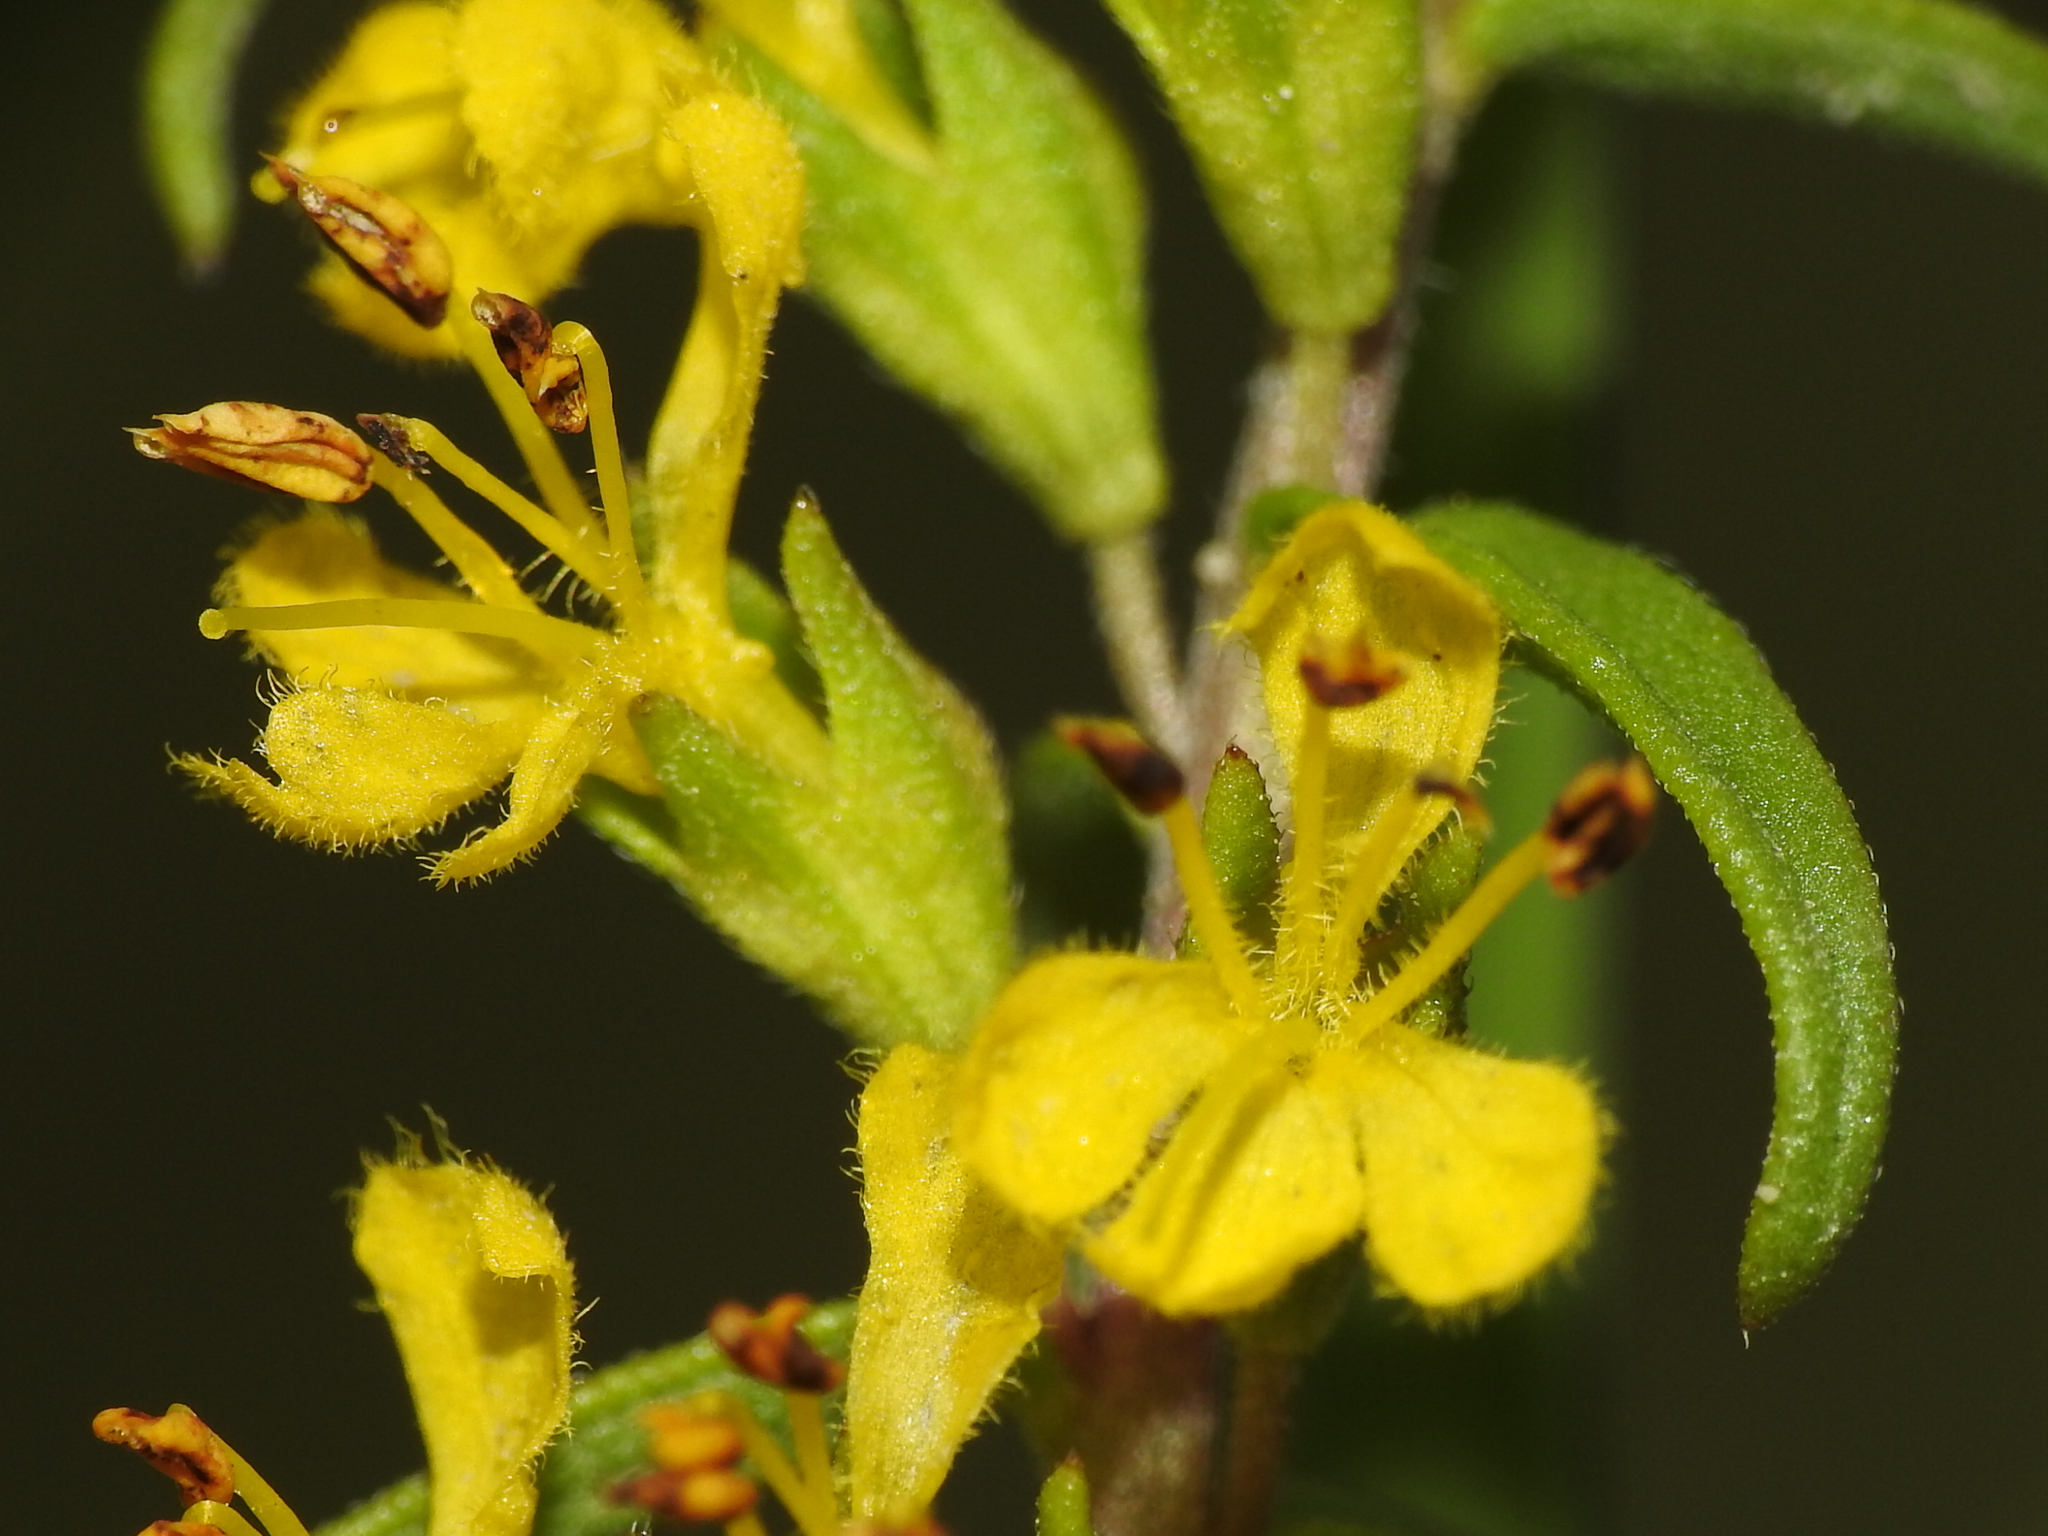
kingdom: Plantae
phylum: Tracheophyta
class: Magnoliopsida
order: Lamiales
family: Orobanchaceae
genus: Odontites
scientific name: Odontites luteus
